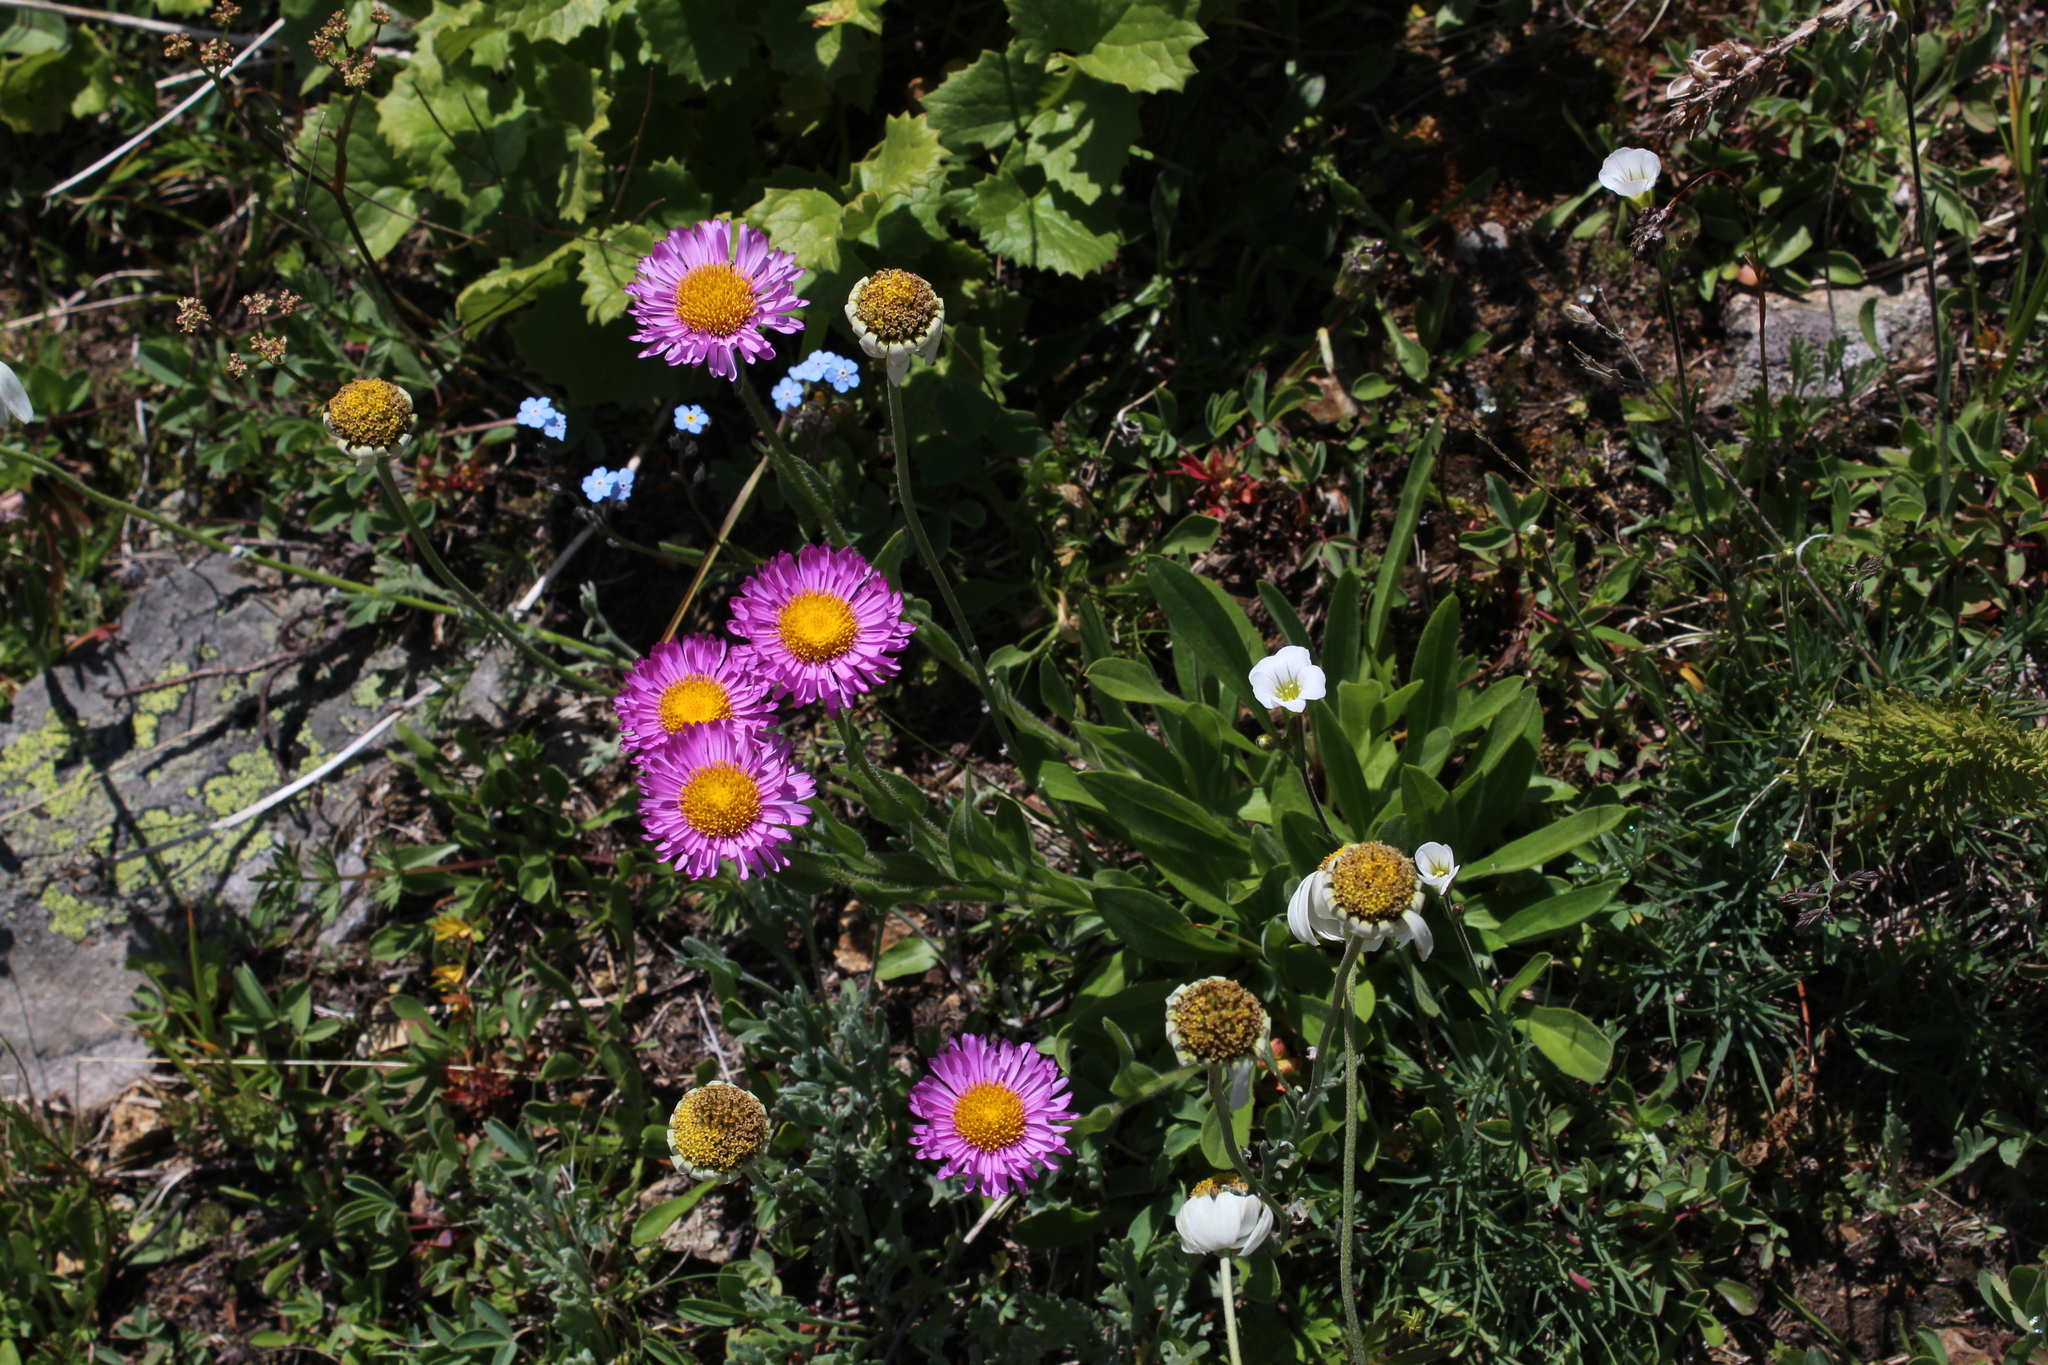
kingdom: Plantae
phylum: Tracheophyta
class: Magnoliopsida
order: Asterales
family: Asteraceae
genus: Erigeron
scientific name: Erigeron caucasicus
